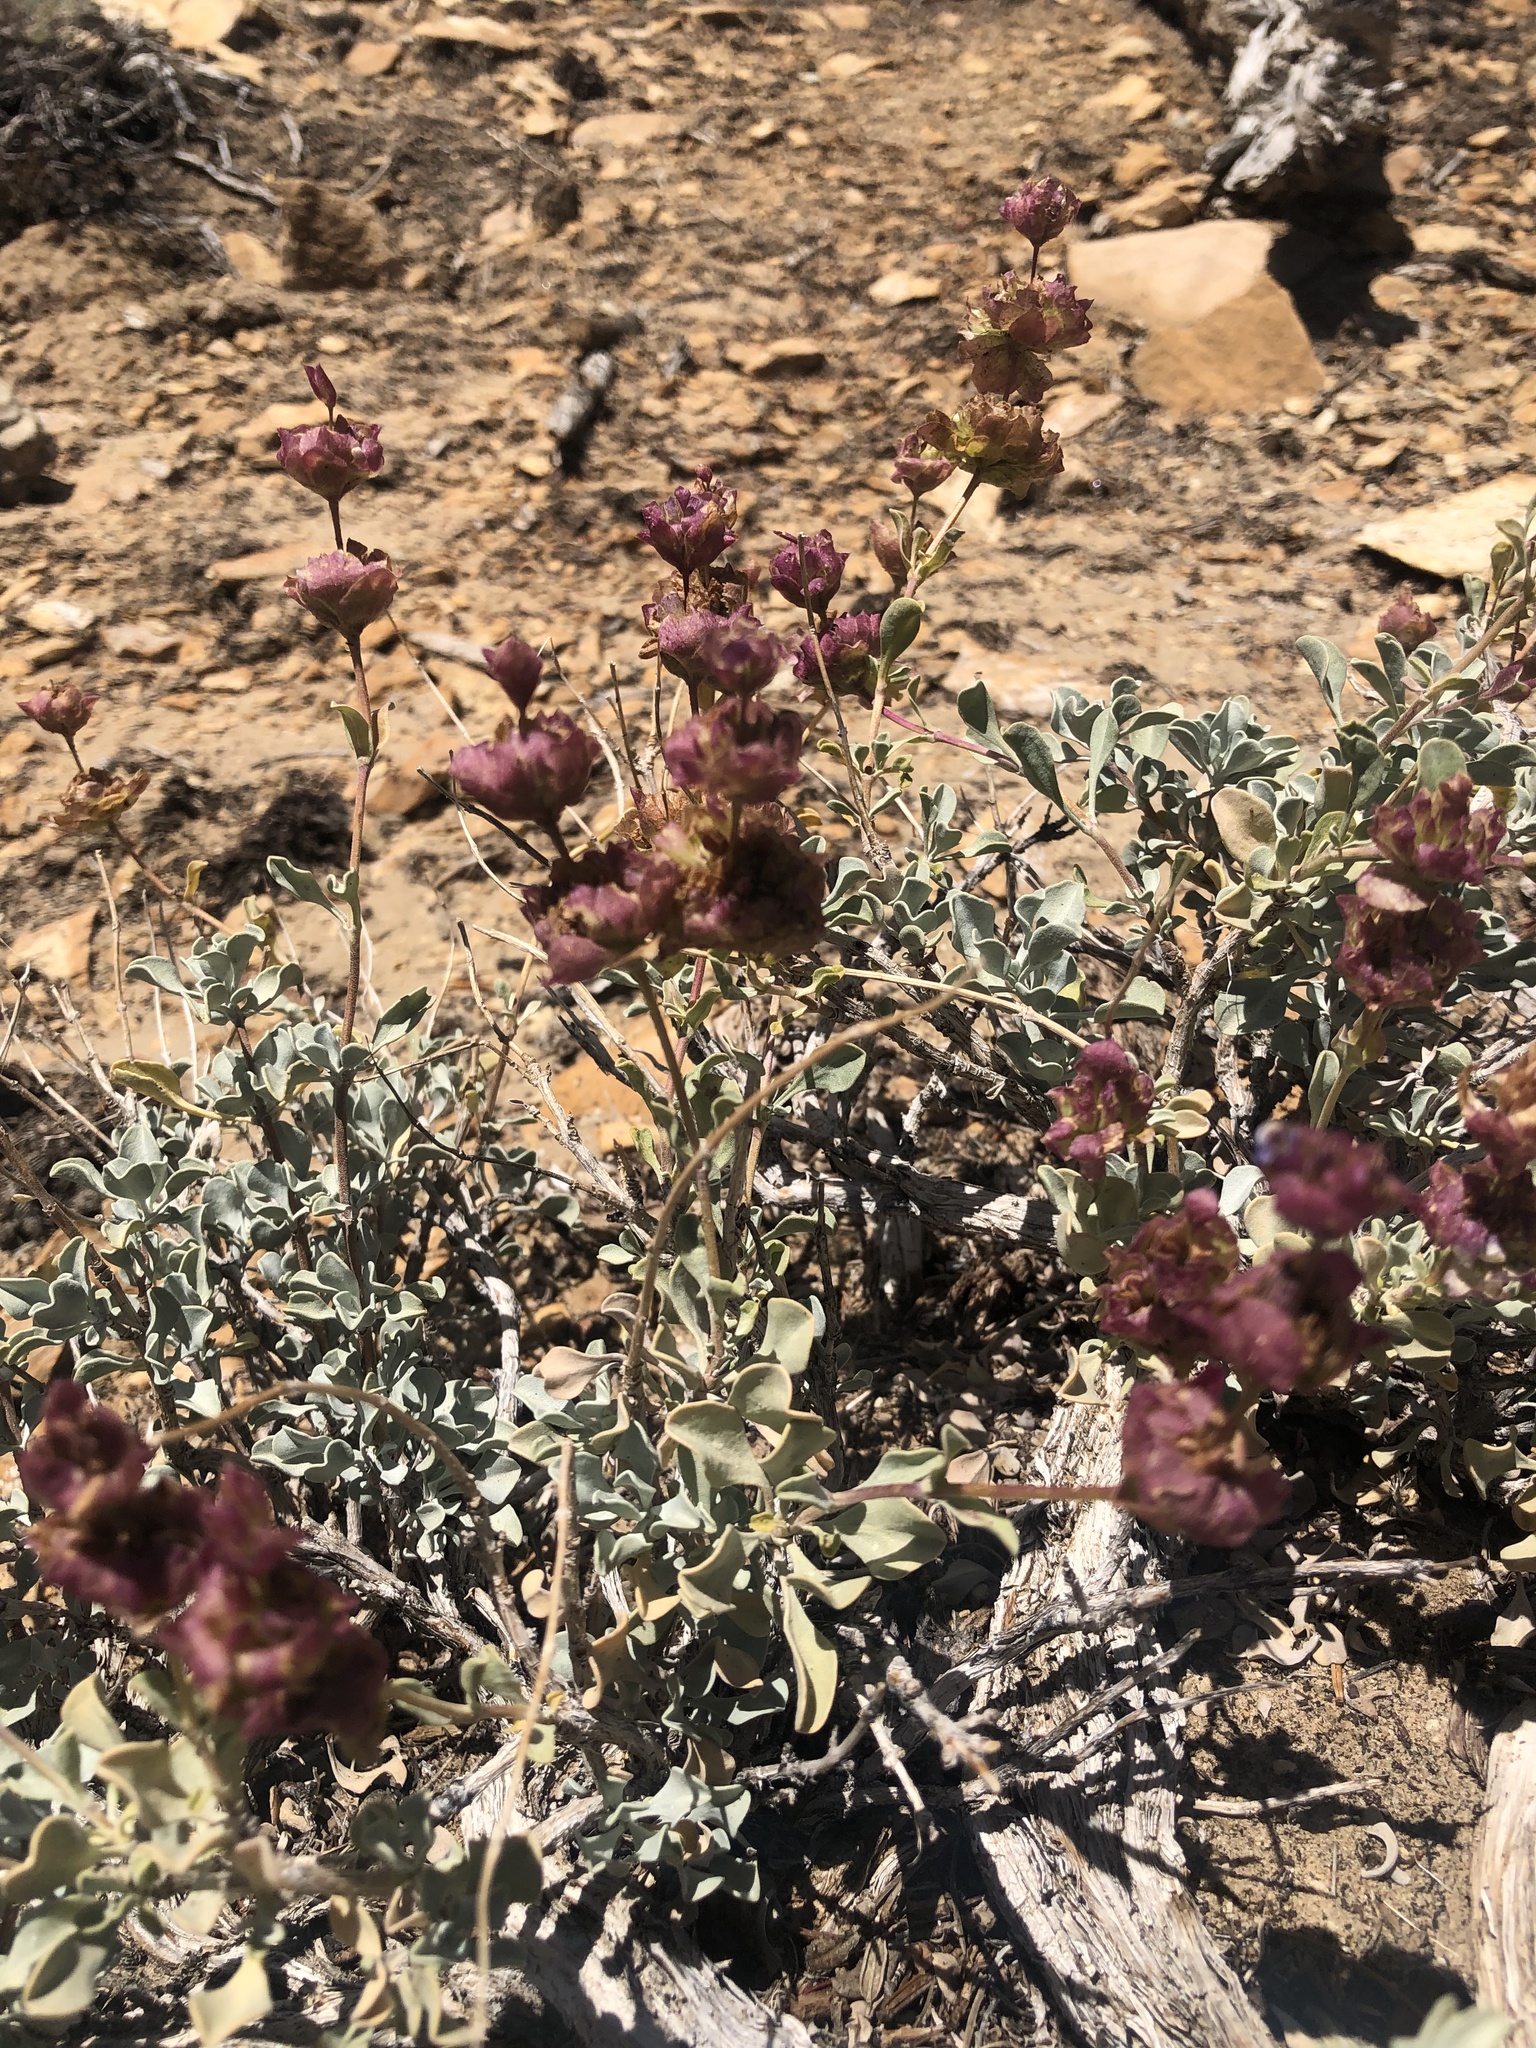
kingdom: Plantae
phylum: Tracheophyta
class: Magnoliopsida
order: Lamiales
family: Lamiaceae
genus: Salvia
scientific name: Salvia dorrii
